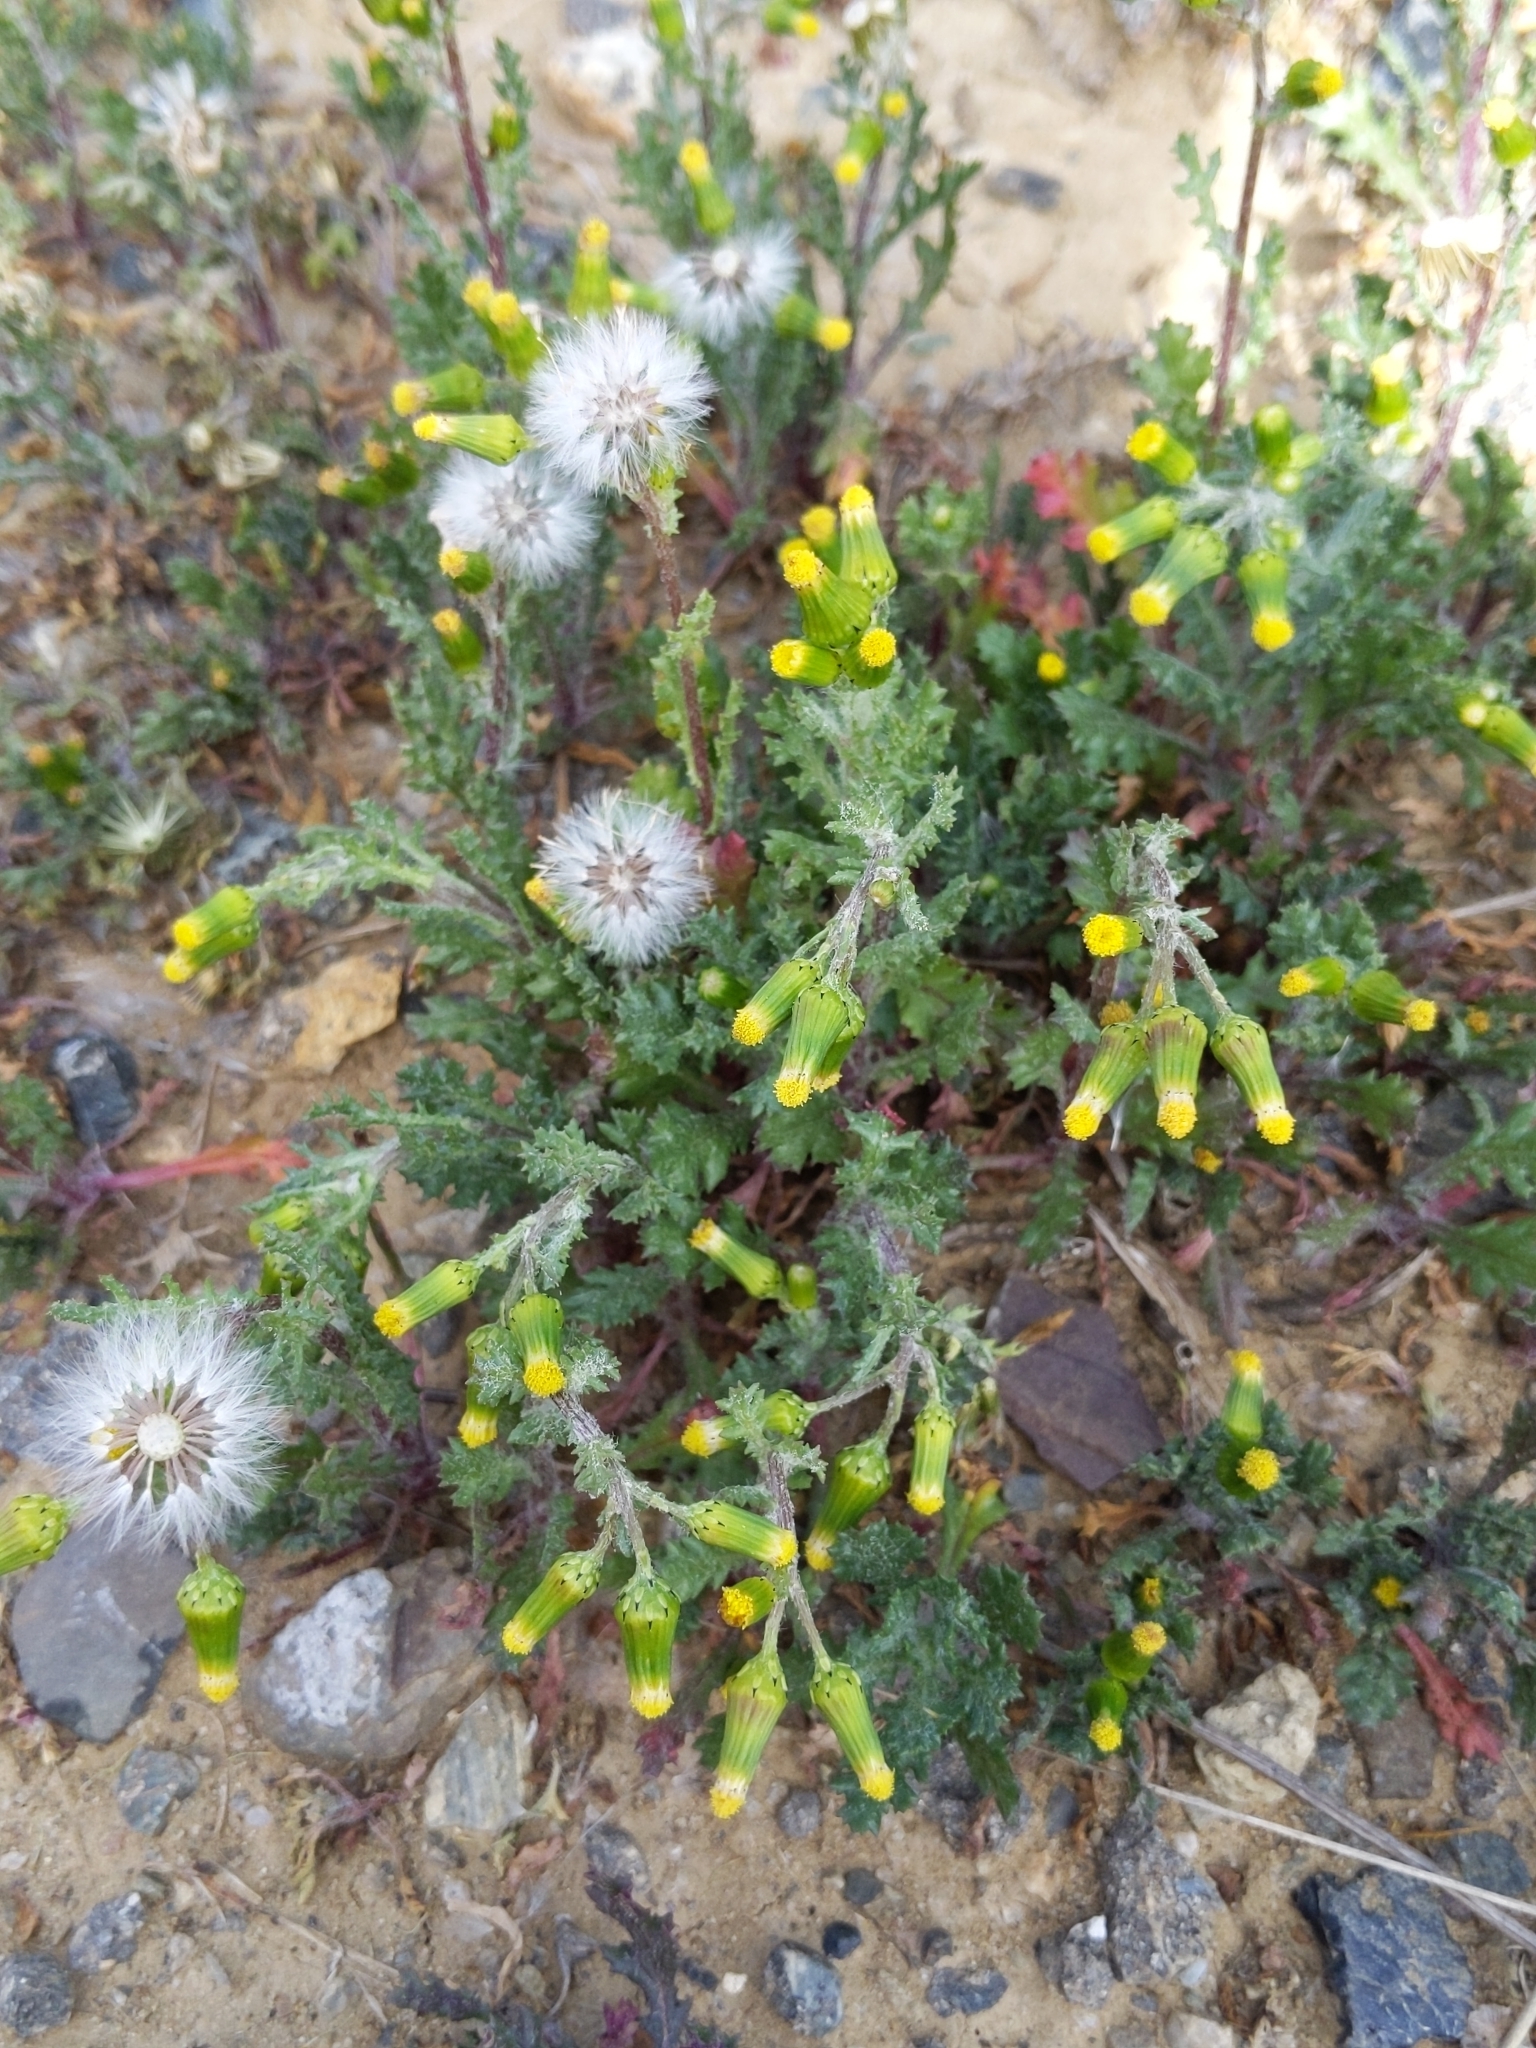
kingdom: Plantae
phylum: Tracheophyta
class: Magnoliopsida
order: Asterales
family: Asteraceae
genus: Senecio
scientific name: Senecio vulgaris
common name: Old-man-in-the-spring
